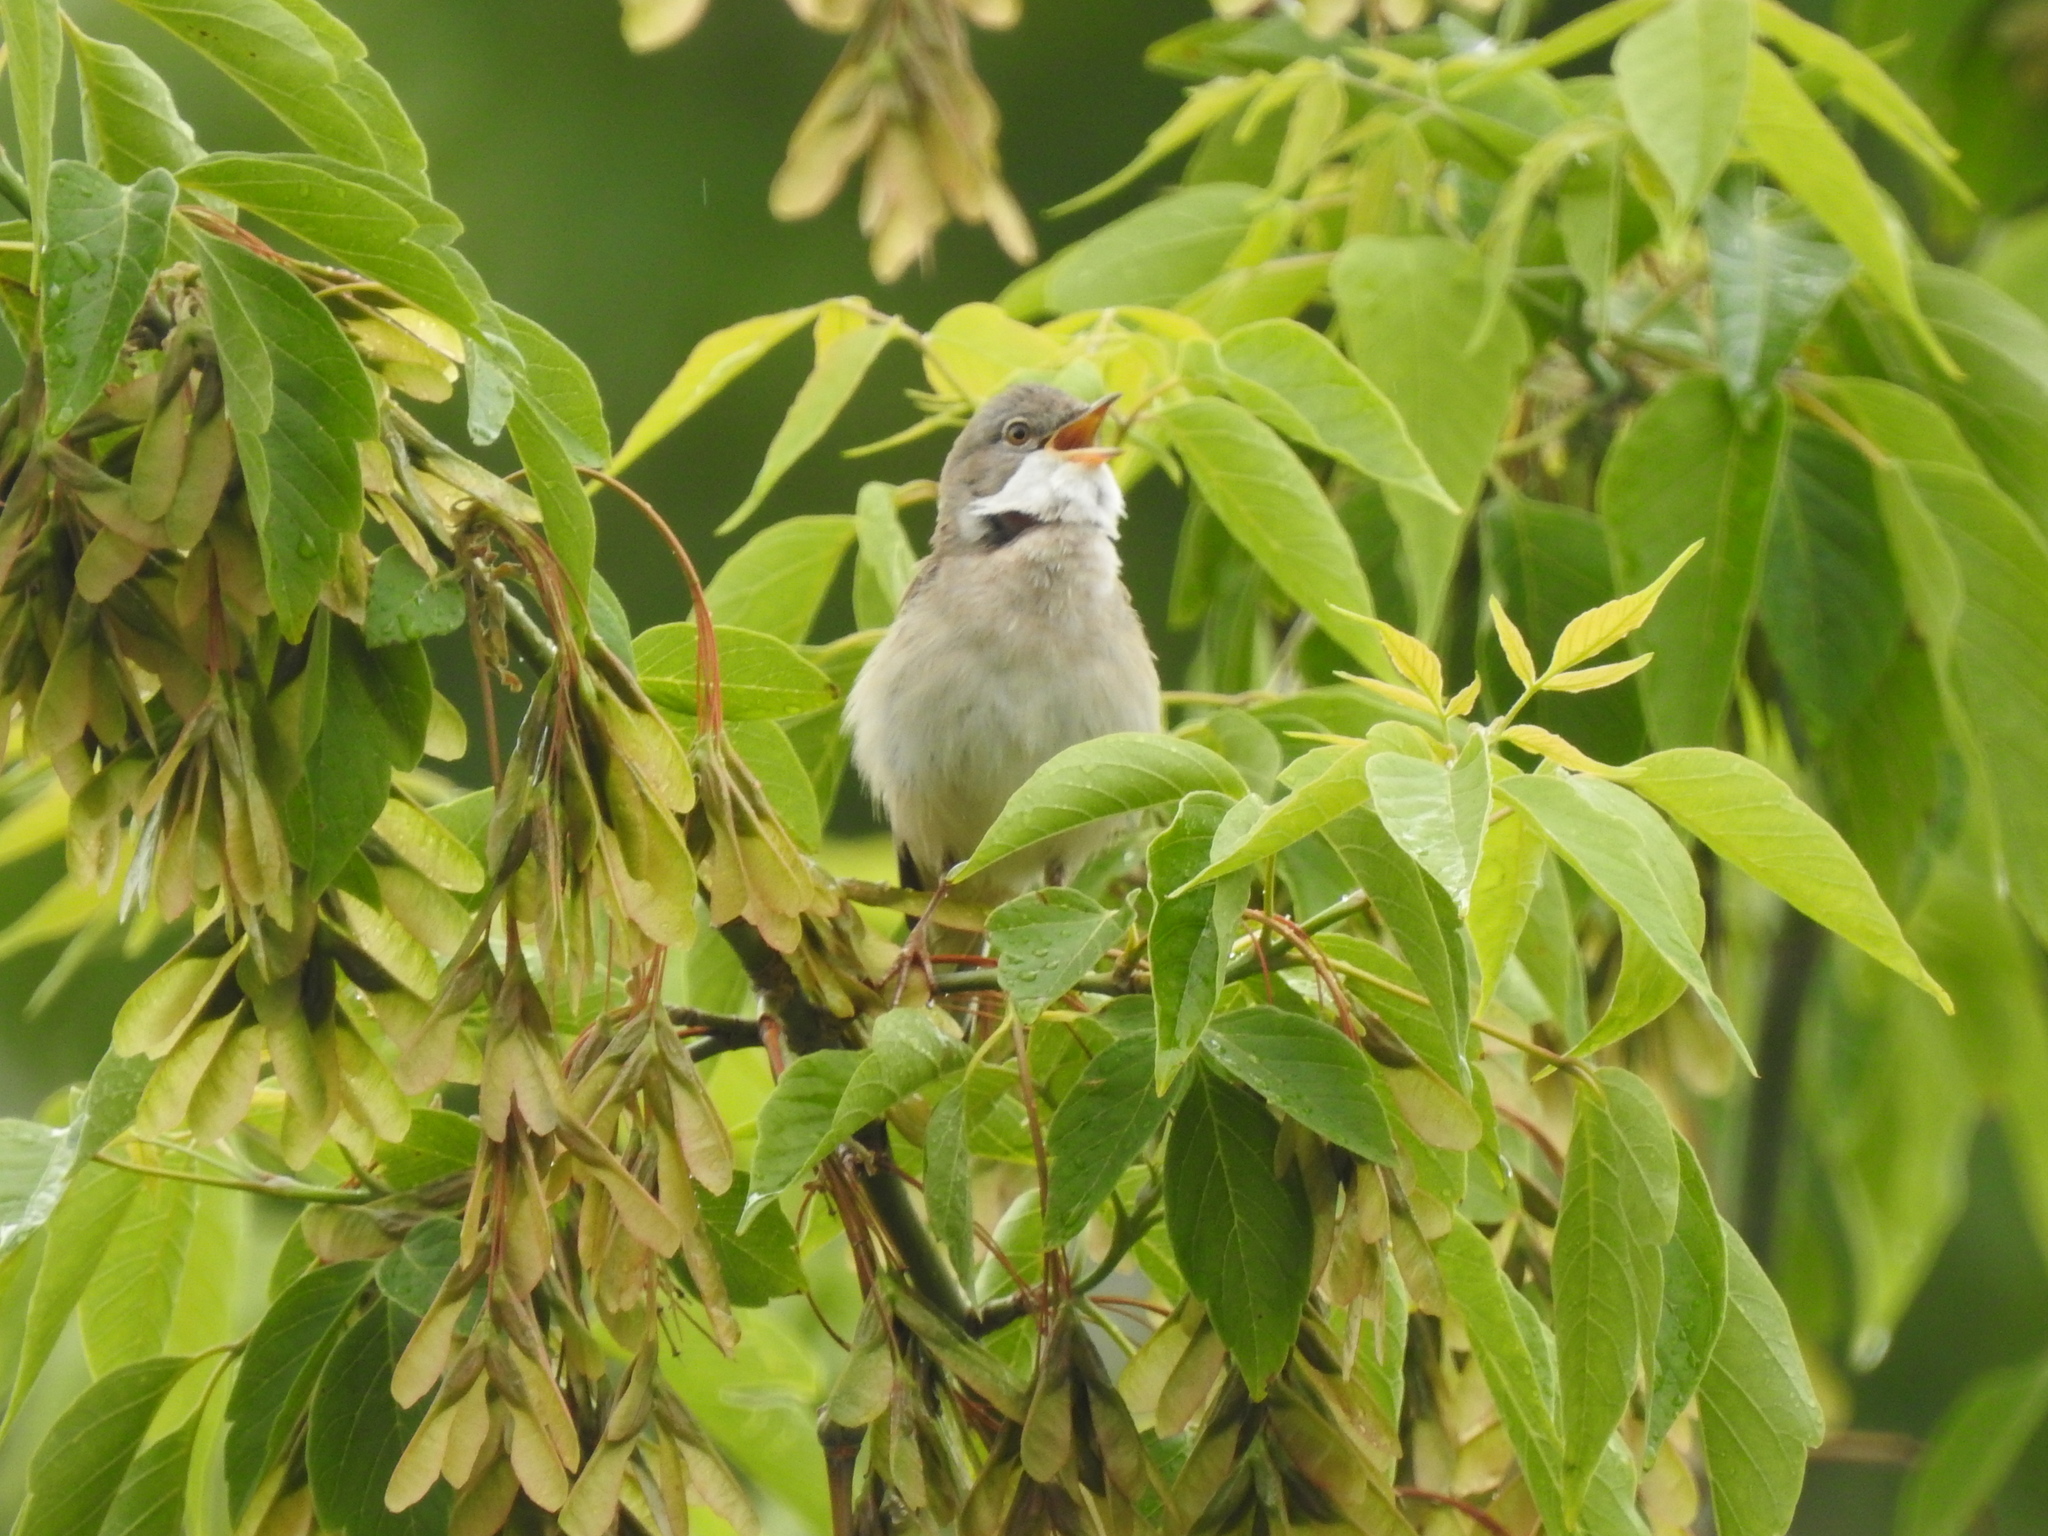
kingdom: Animalia
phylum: Chordata
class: Aves
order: Passeriformes
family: Sylviidae
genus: Sylvia
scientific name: Sylvia communis
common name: Common whitethroat
